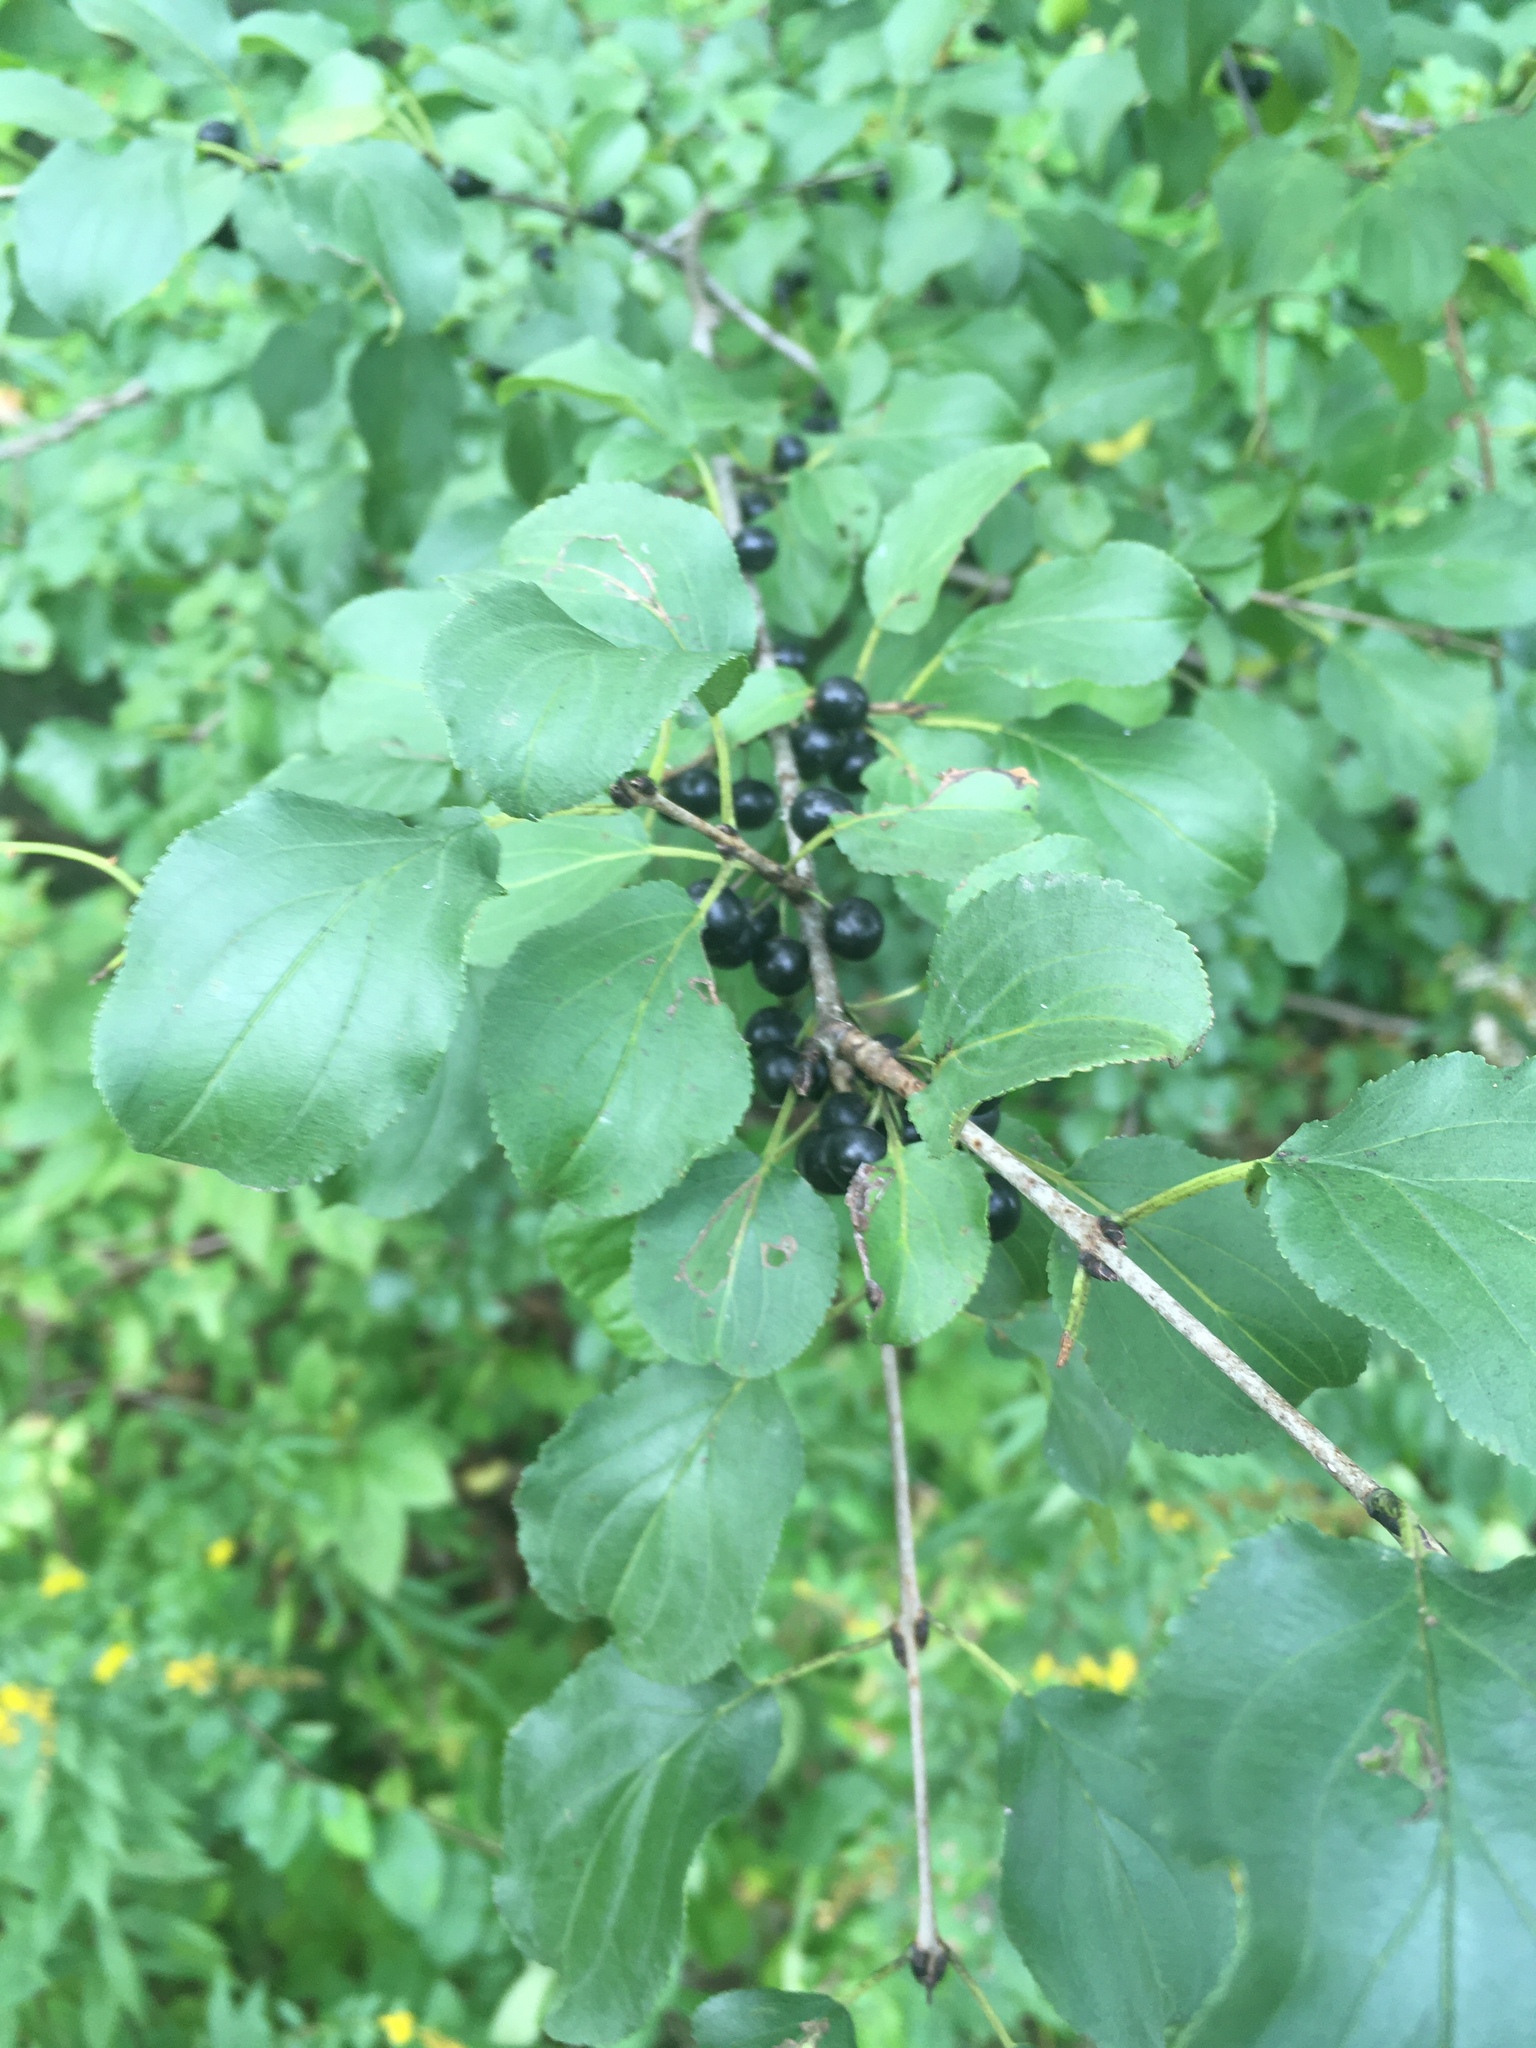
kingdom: Plantae
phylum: Tracheophyta
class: Magnoliopsida
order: Rosales
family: Rhamnaceae
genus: Rhamnus
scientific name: Rhamnus cathartica
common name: Common buckthorn
